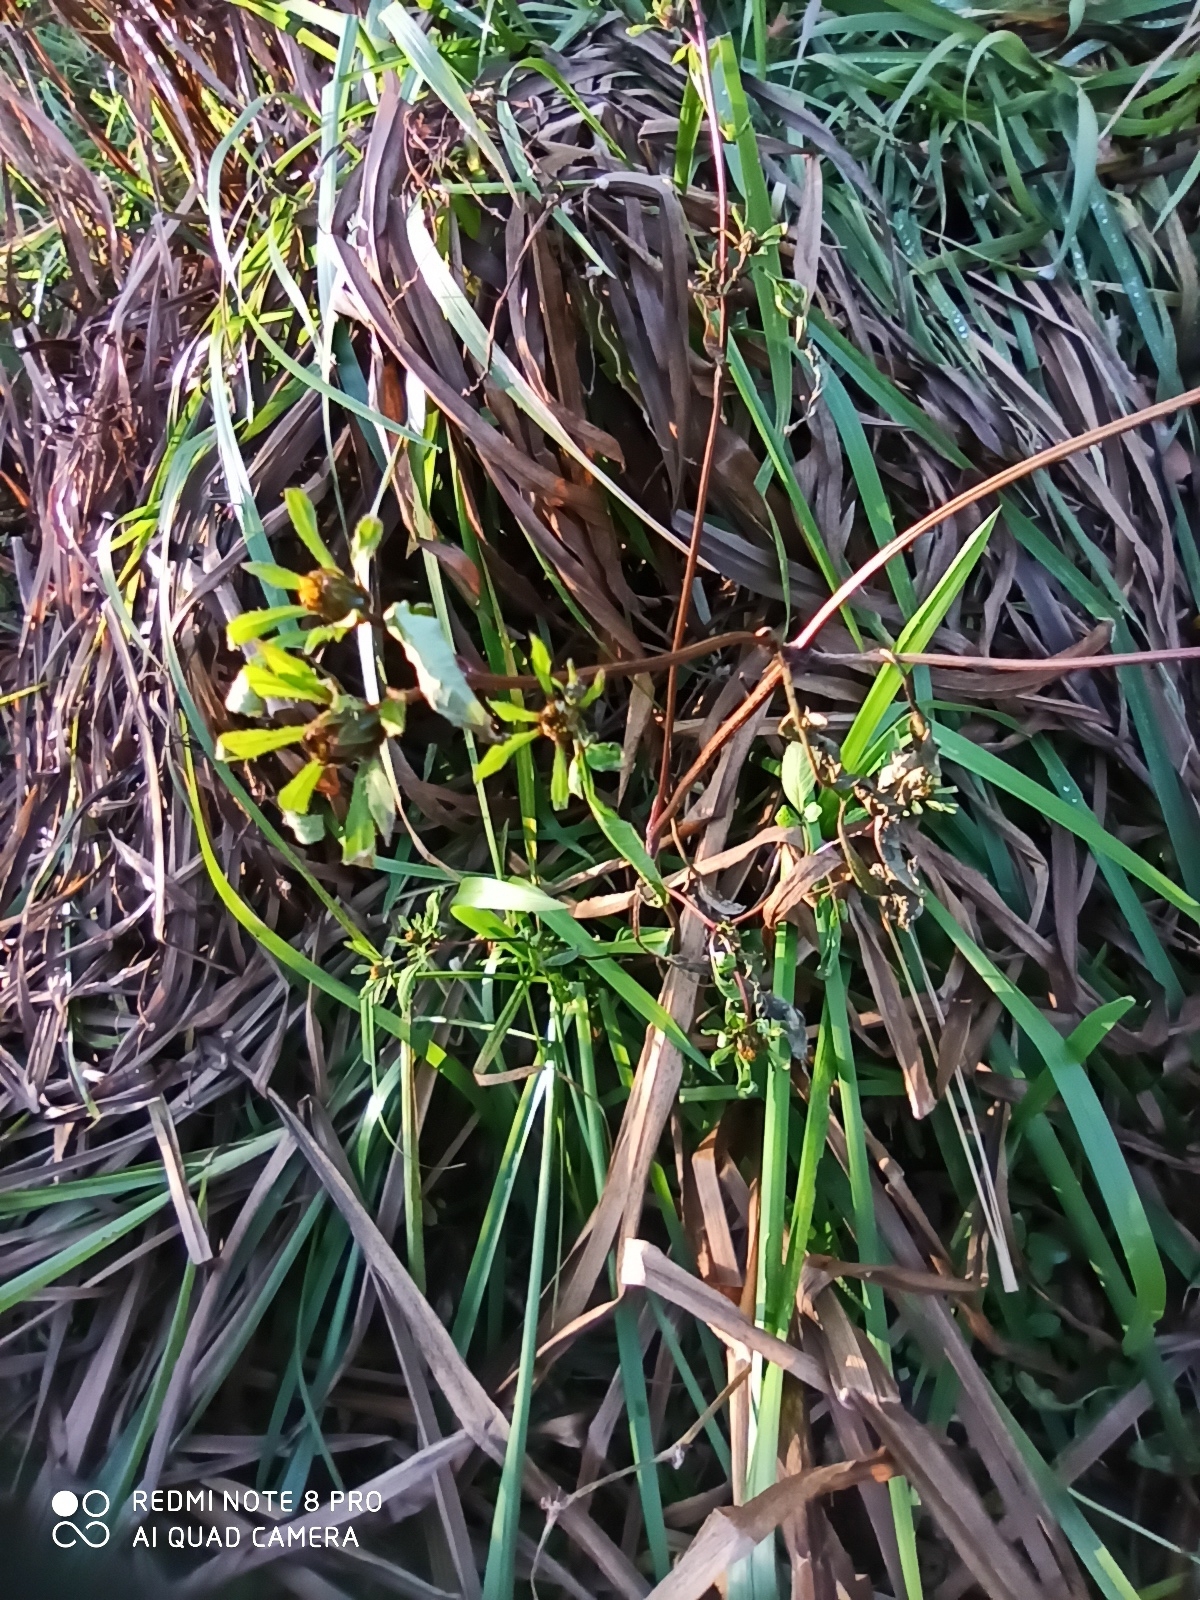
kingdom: Plantae
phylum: Tracheophyta
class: Magnoliopsida
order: Asterales
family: Asteraceae
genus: Bidens
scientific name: Bidens frondosa
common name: Beggarticks
